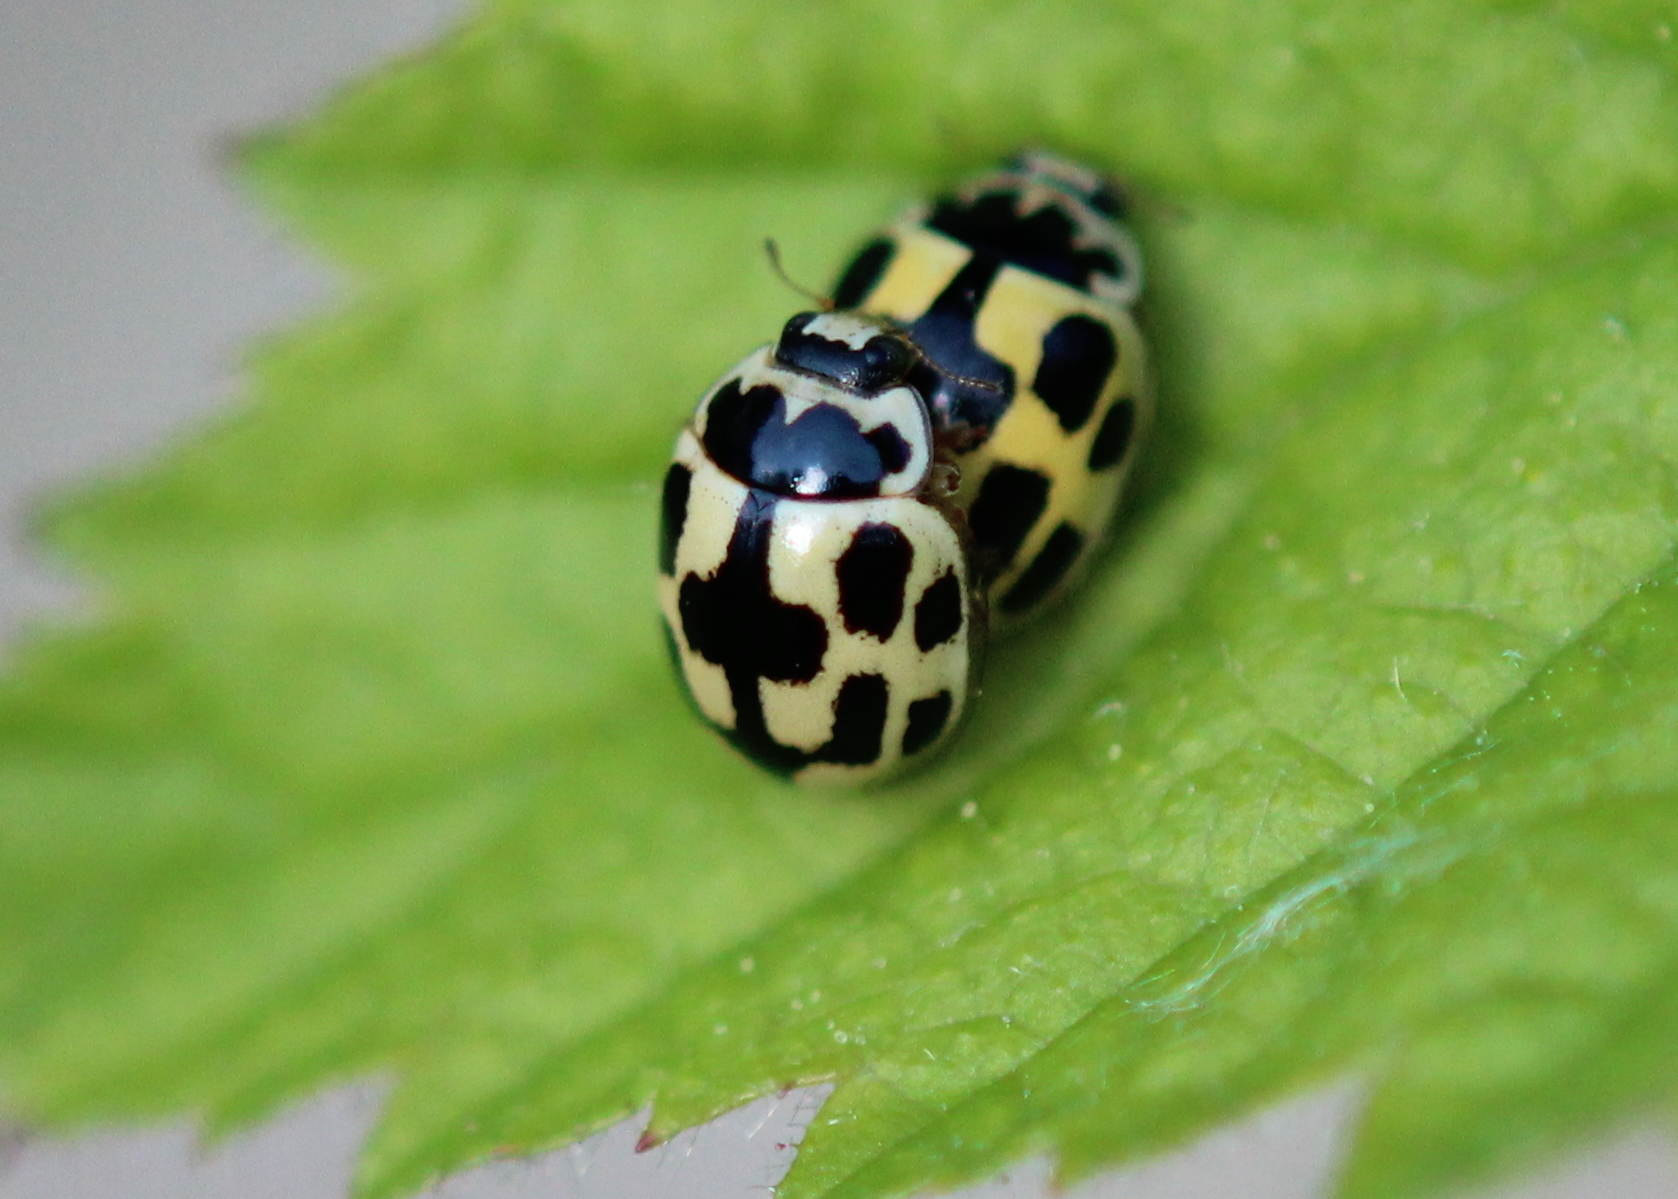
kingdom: Animalia
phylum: Arthropoda
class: Insecta
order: Coleoptera
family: Coccinellidae
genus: Propylaea
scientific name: Propylaea quatuordecimpunctata
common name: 14-spotted ladybird beetle
